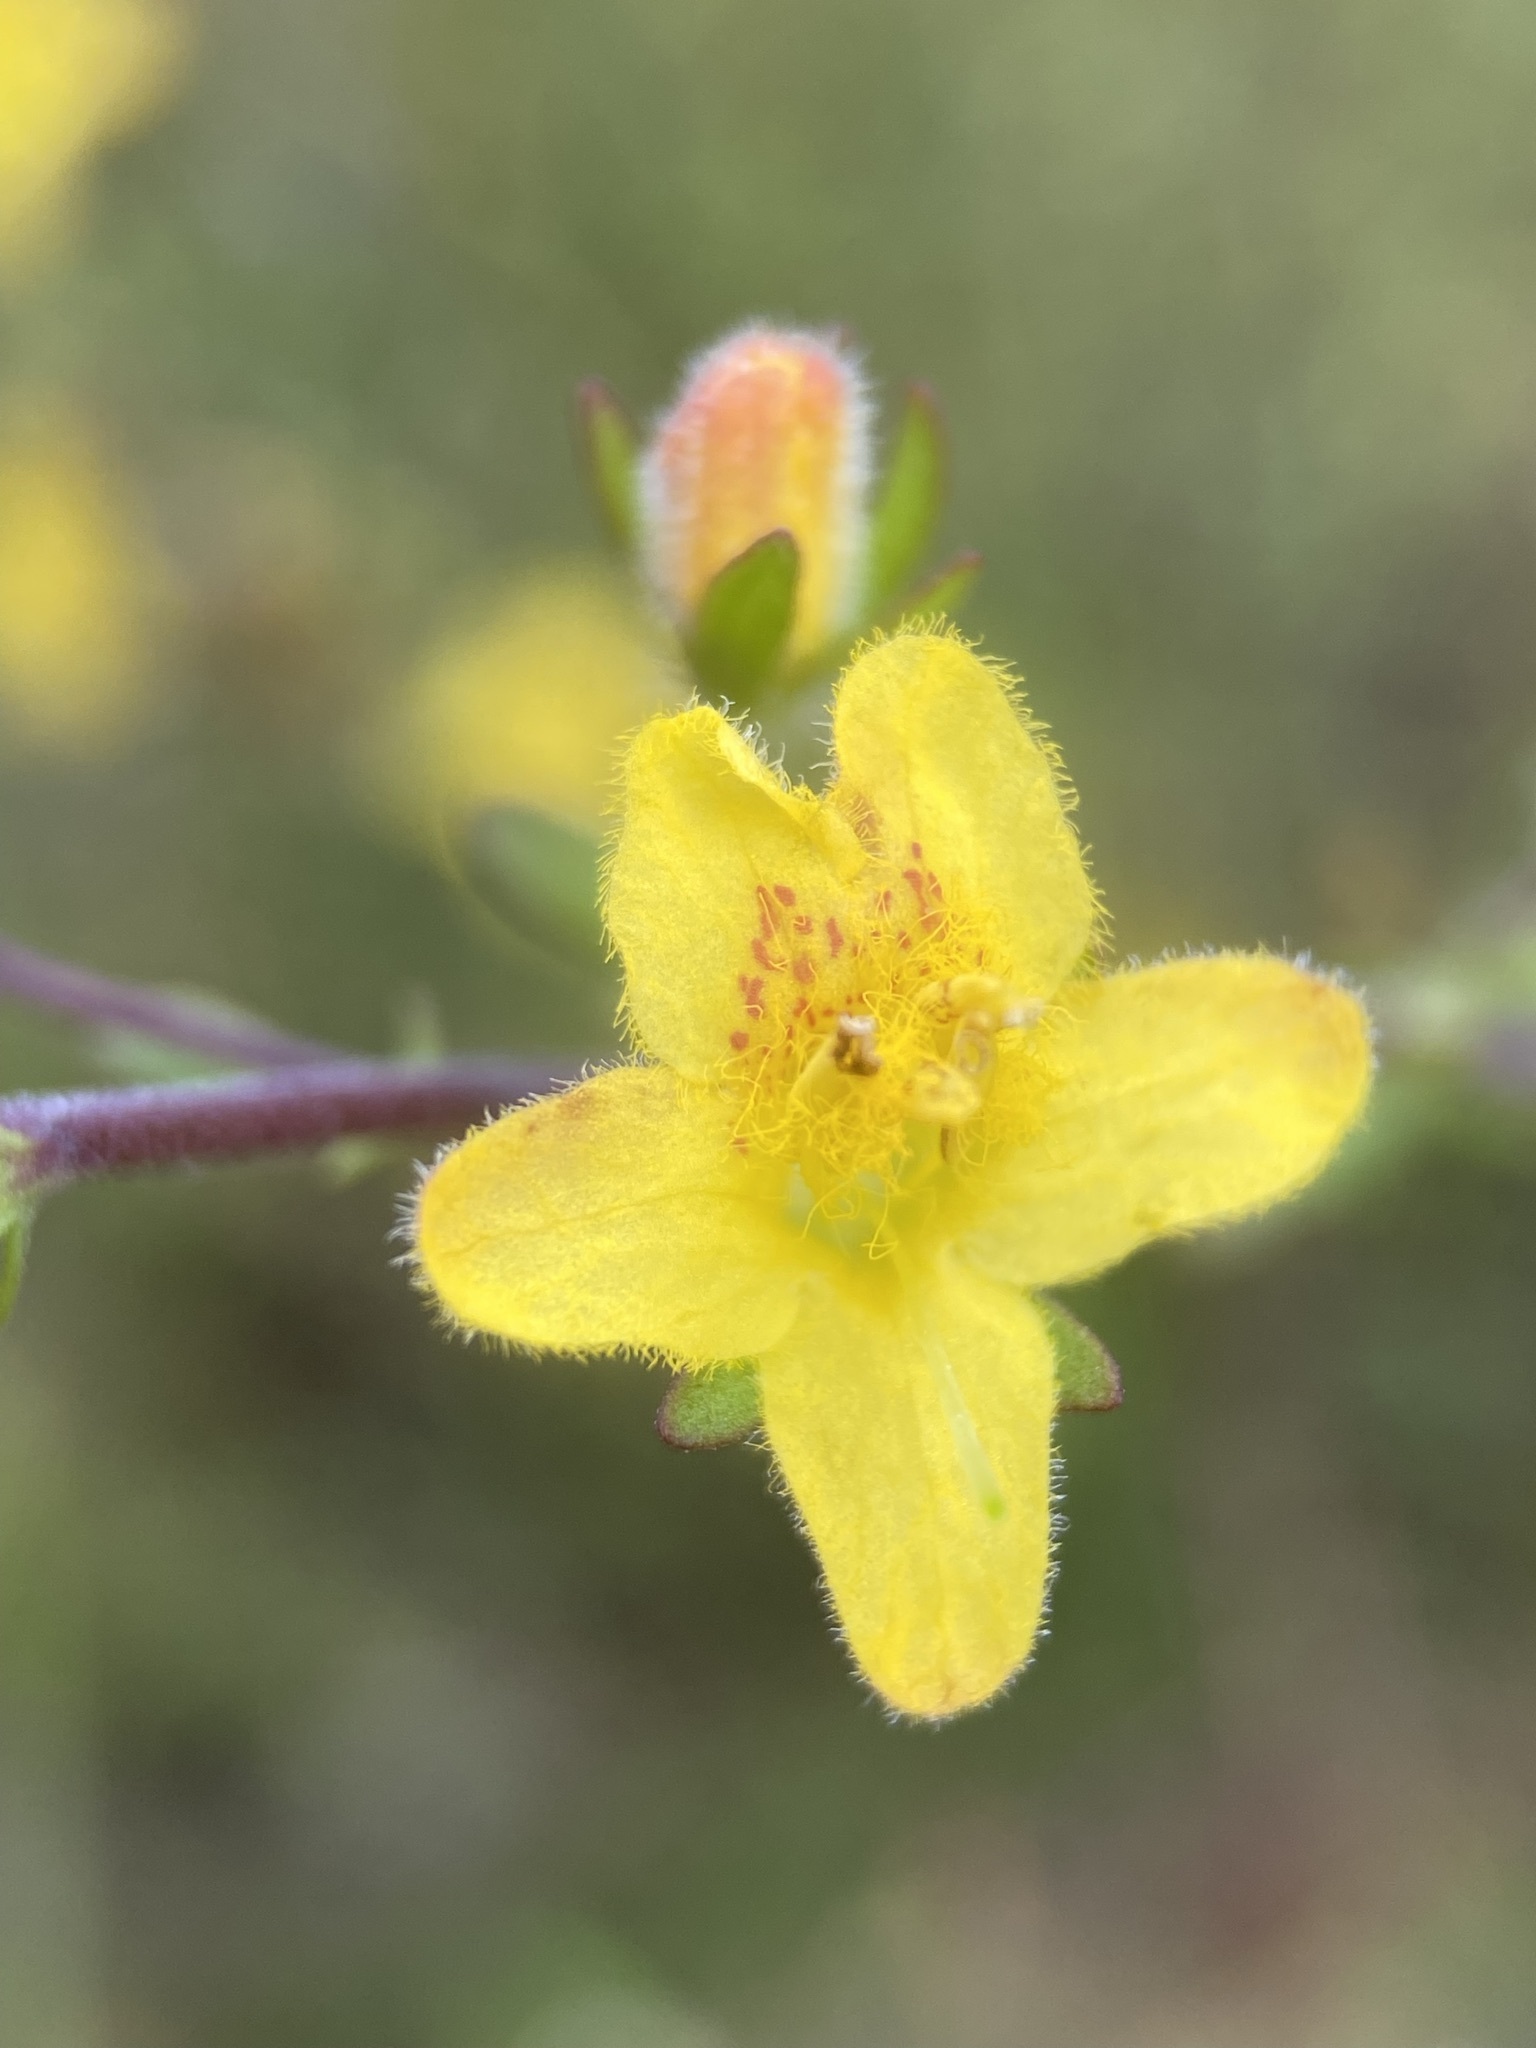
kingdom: Plantae
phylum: Tracheophyta
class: Magnoliopsida
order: Lamiales
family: Orobanchaceae
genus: Seymeria
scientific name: Seymeria pectinata
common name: Piedmont black-senna
